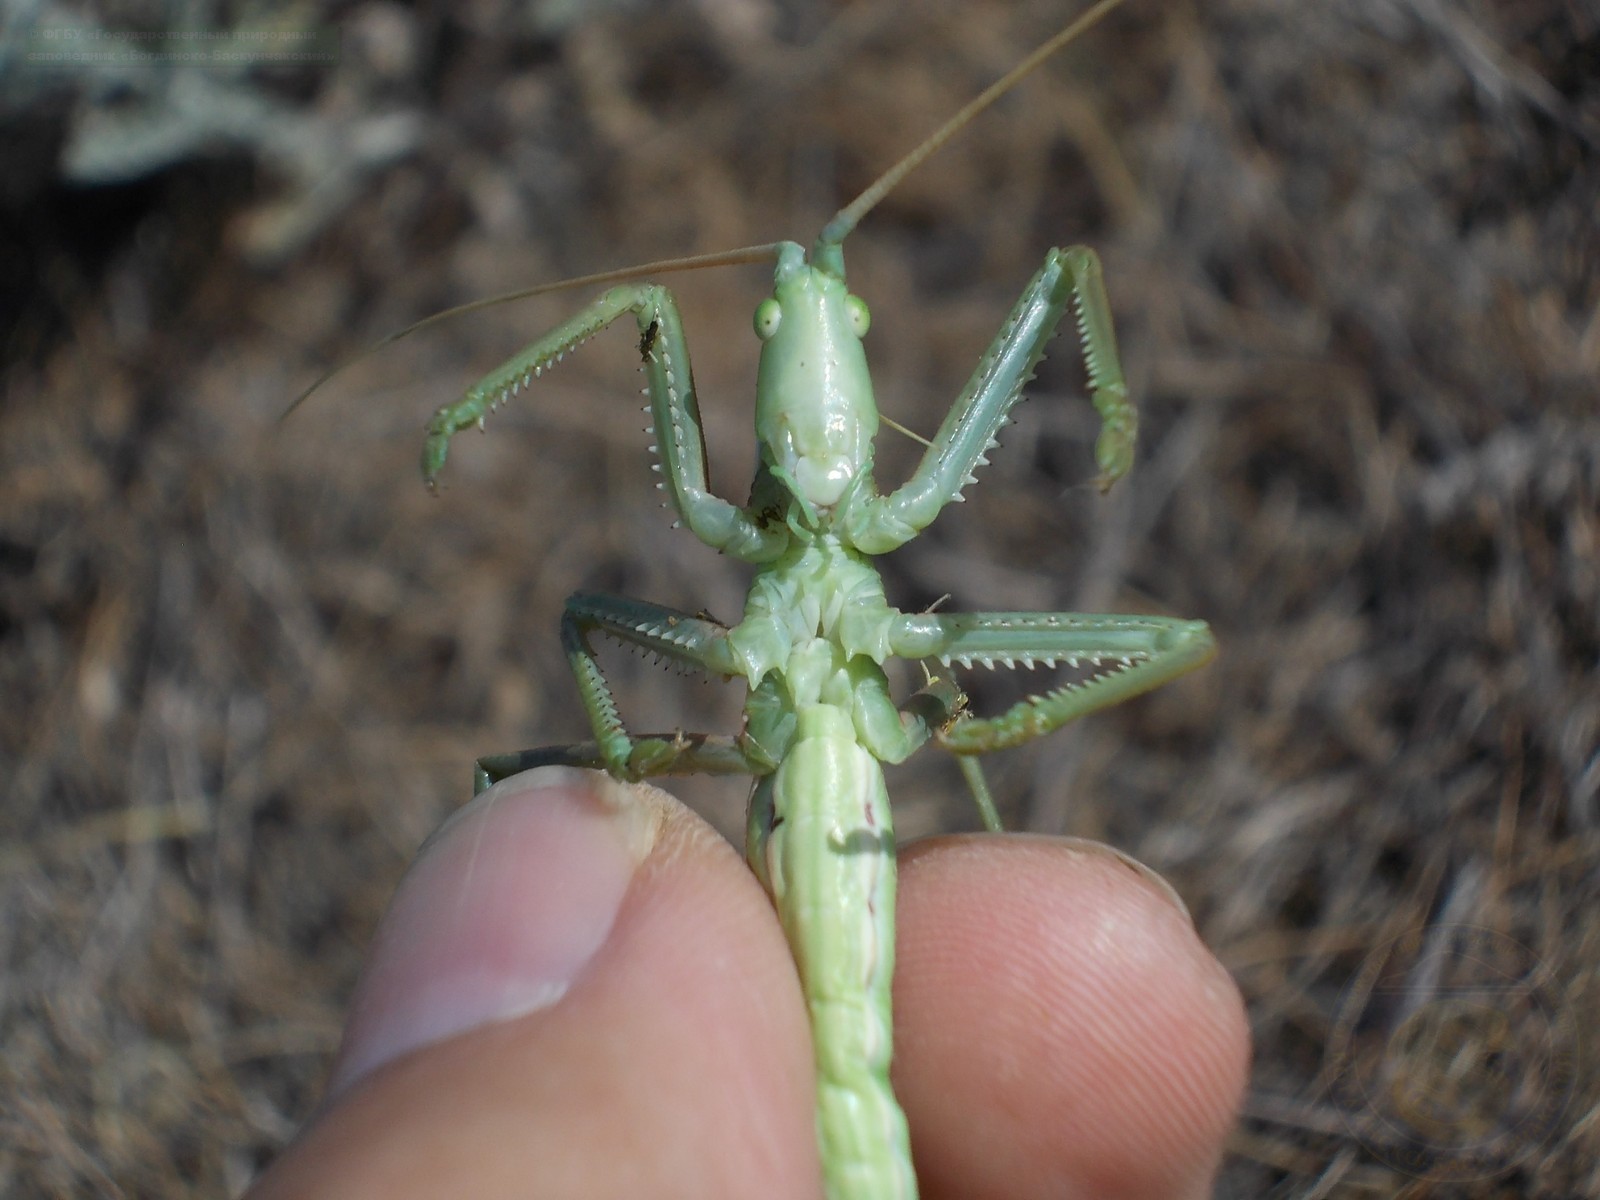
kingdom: Animalia
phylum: Arthropoda
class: Insecta
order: Orthoptera
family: Tettigoniidae
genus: Saga
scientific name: Saga pedo
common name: Common predatory bush-cricket
